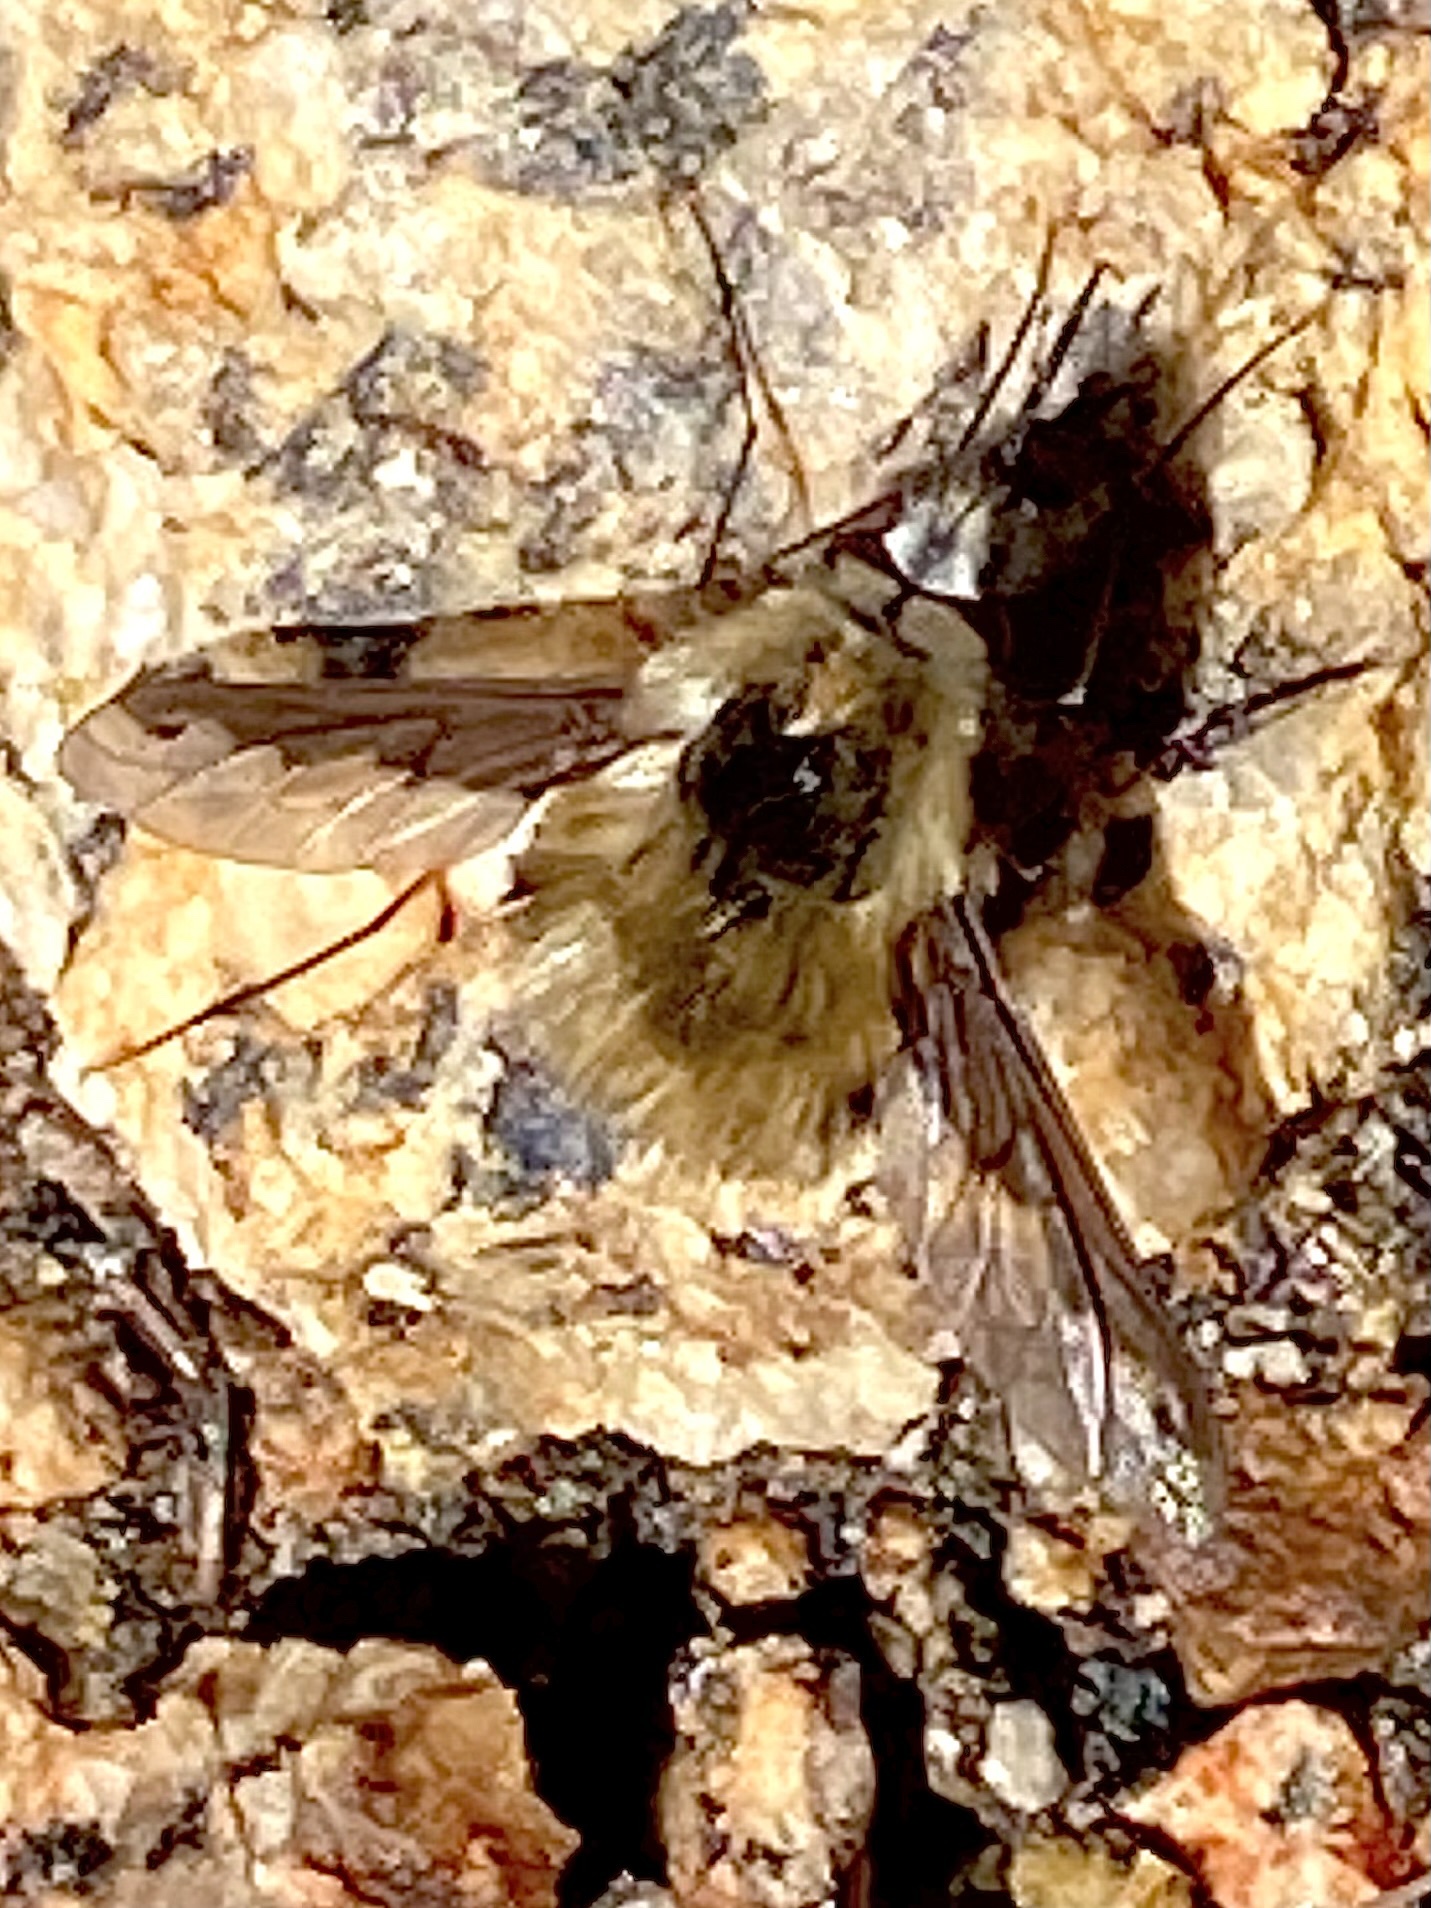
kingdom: Animalia
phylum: Arthropoda
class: Insecta
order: Diptera
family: Bombyliidae
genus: Bombylius
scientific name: Bombylius major
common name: Bee fly
